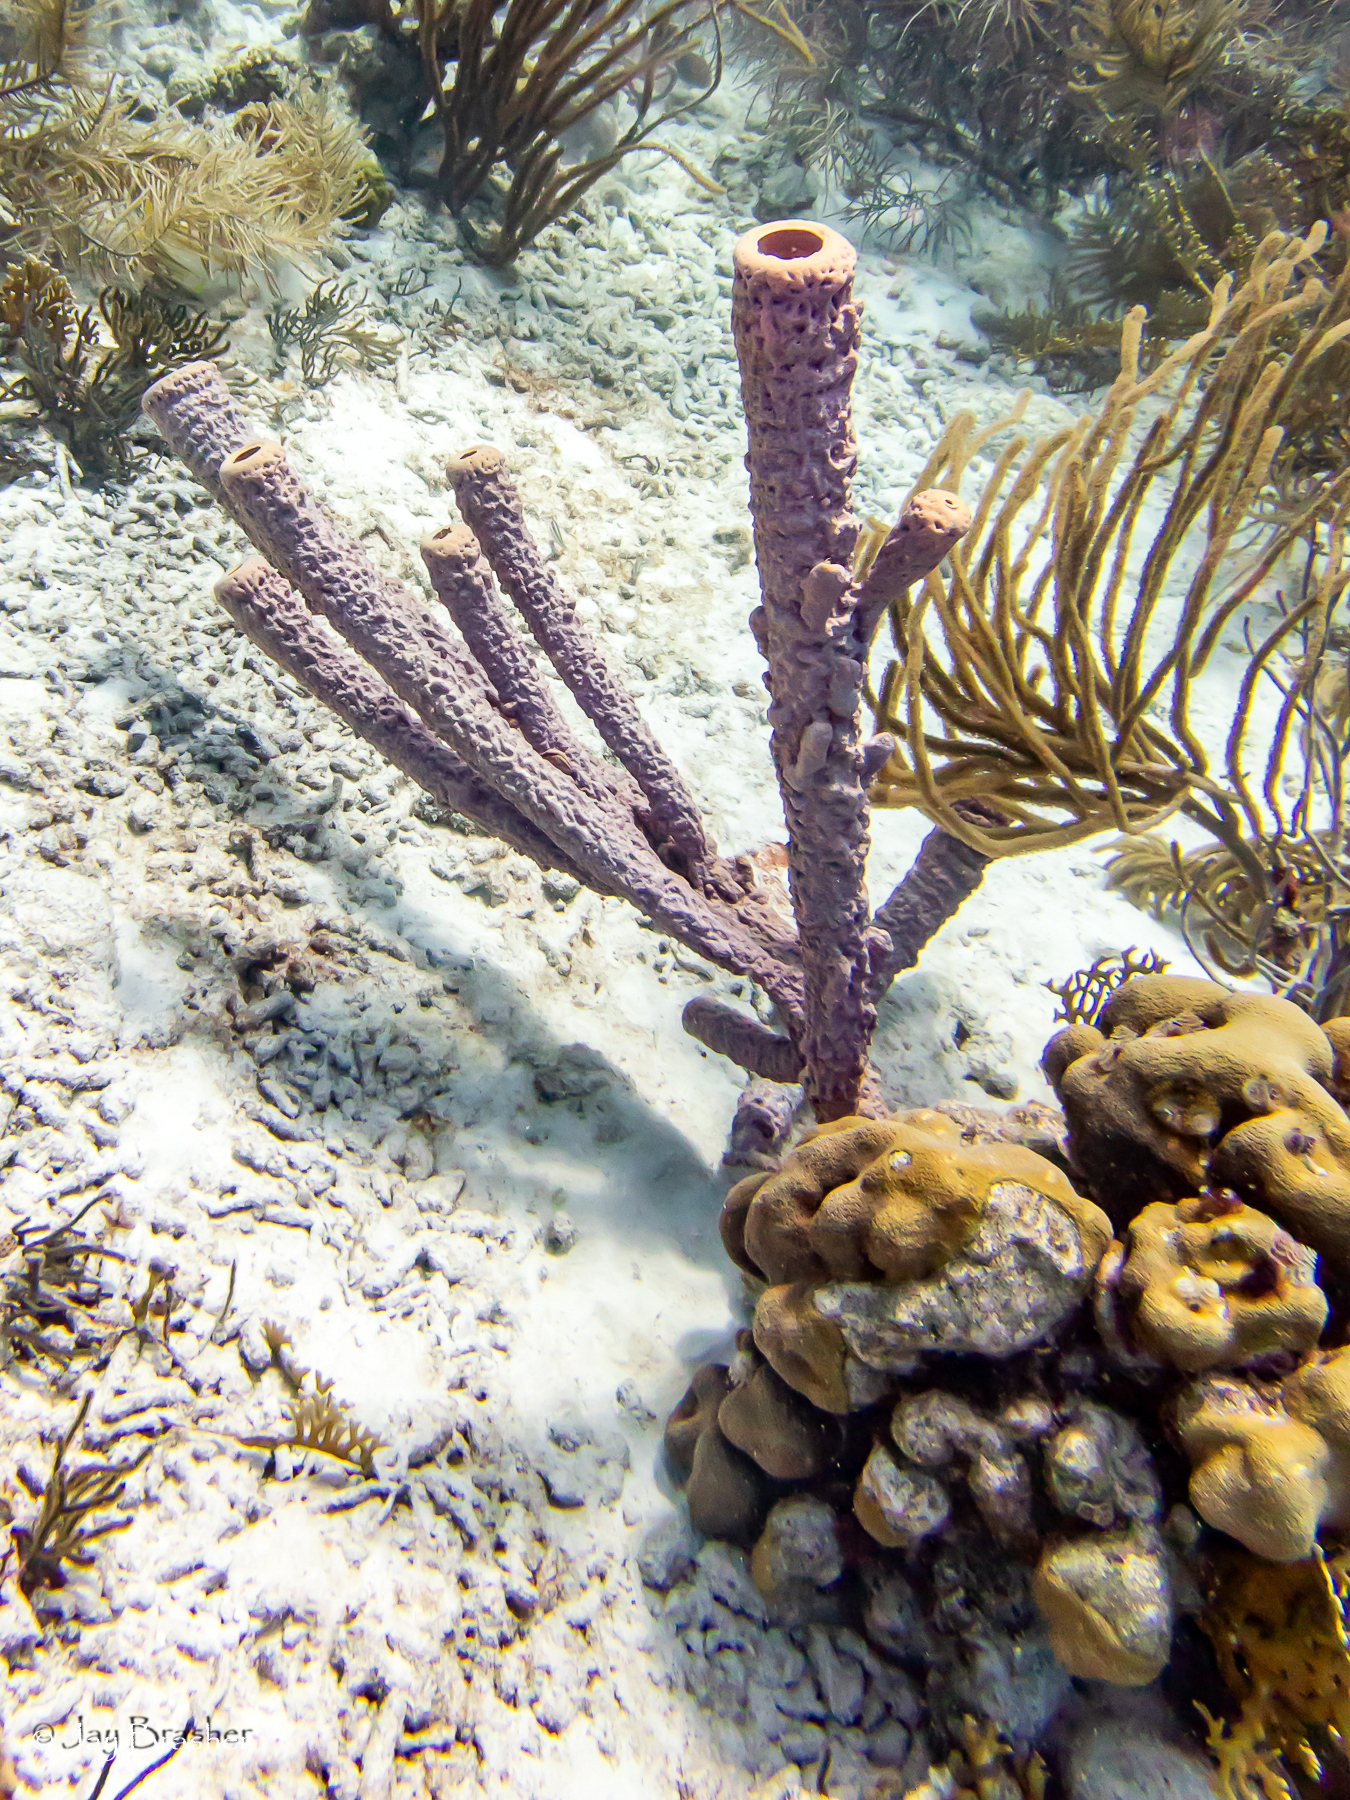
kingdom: Animalia
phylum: Porifera
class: Demospongiae
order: Verongiida
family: Aplysinidae
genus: Aplysina
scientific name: Aplysina archeri
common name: Stove-pipe sponge
